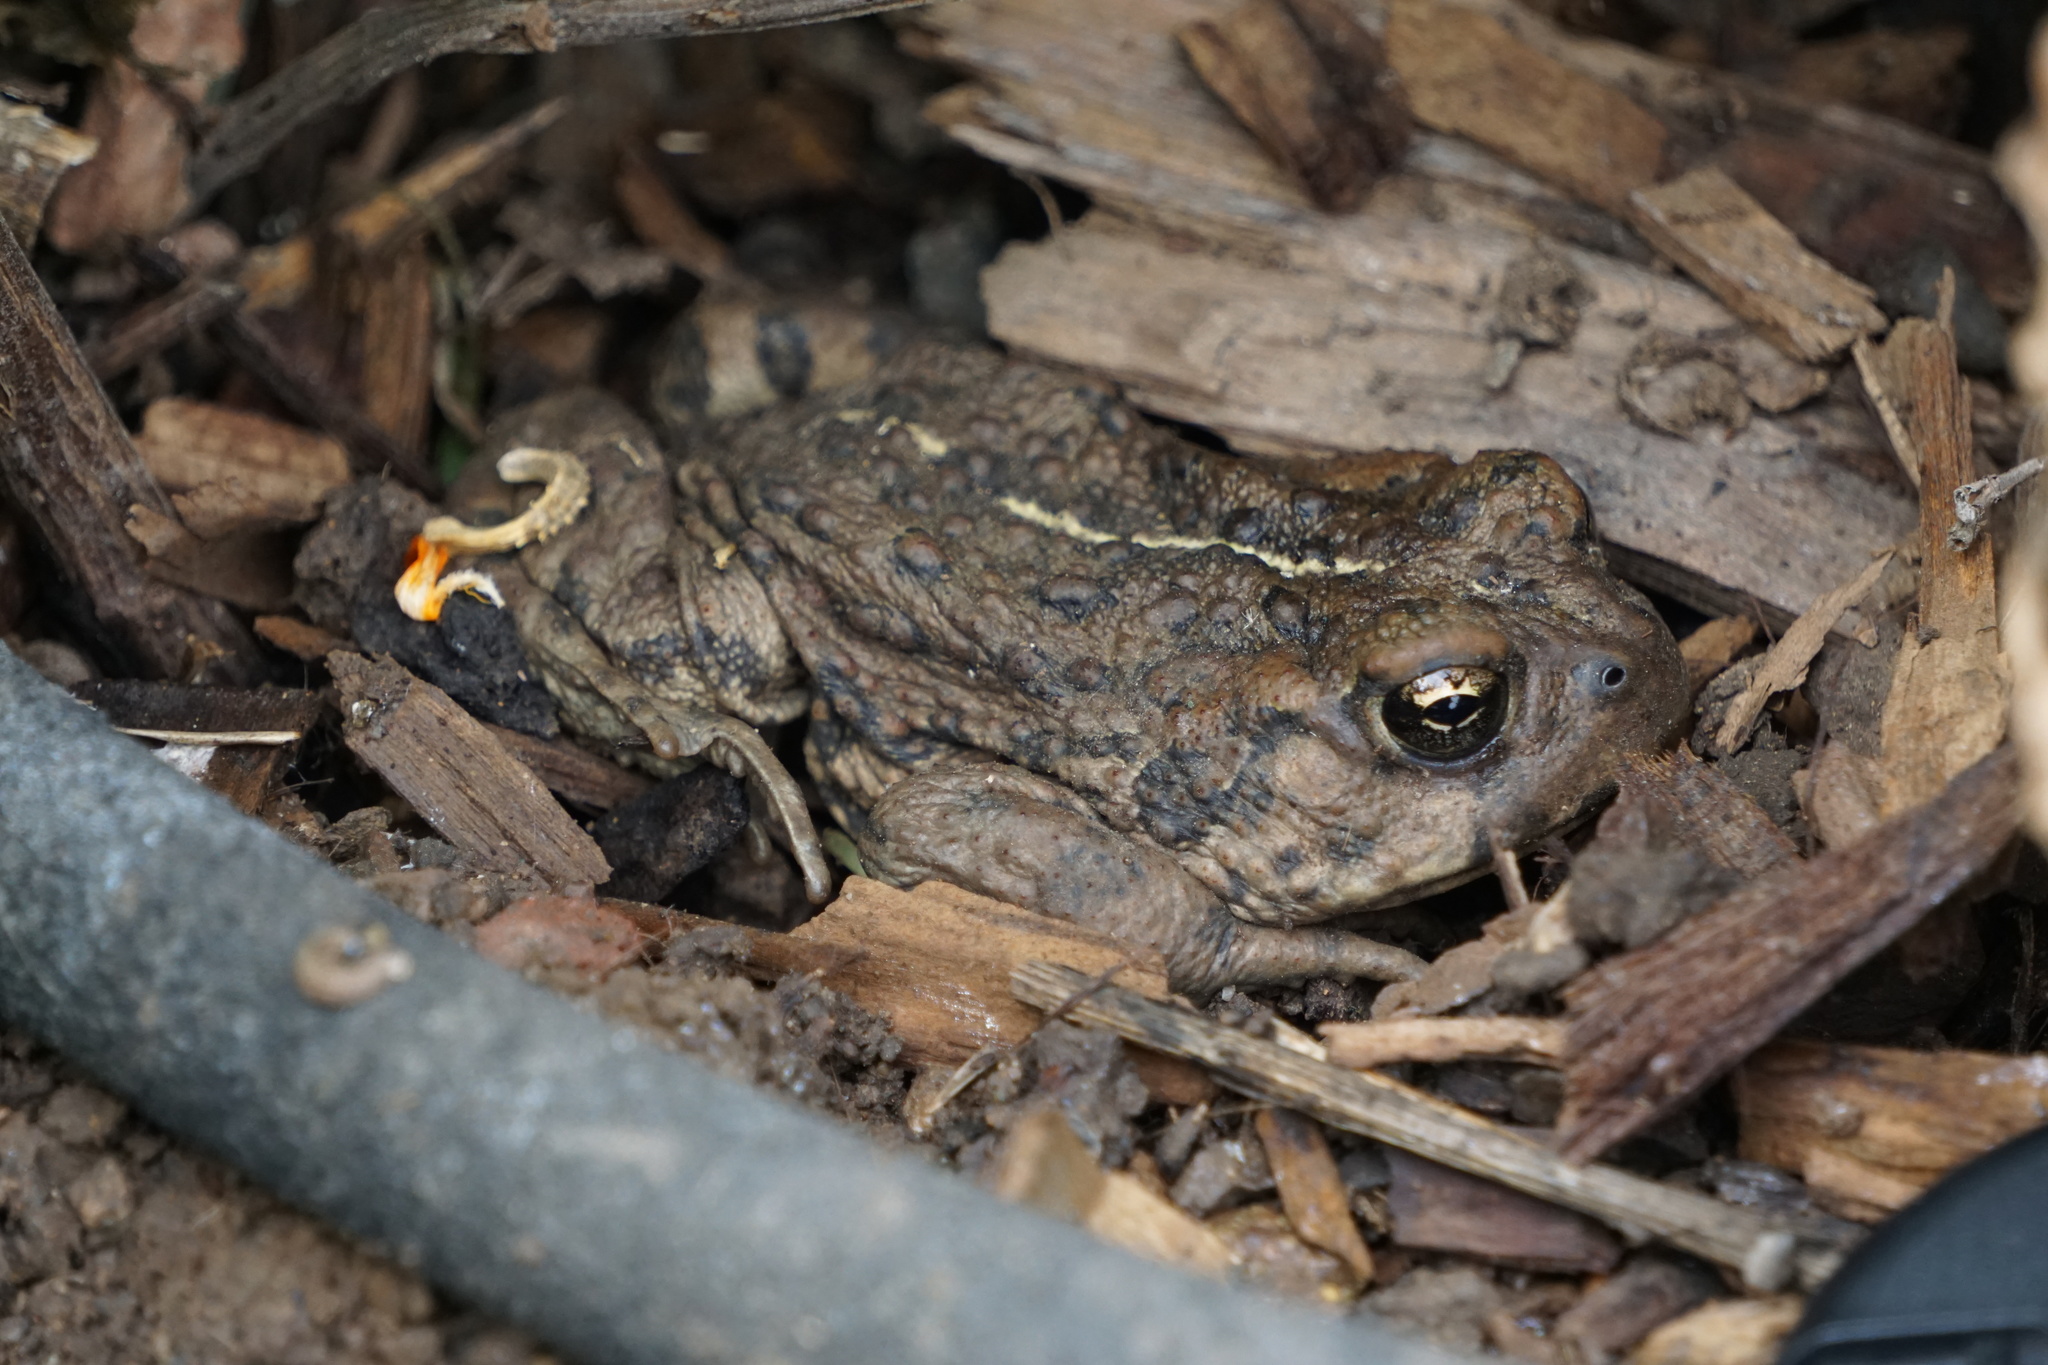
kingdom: Animalia
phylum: Chordata
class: Amphibia
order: Anura
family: Bufonidae
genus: Anaxyrus
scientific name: Anaxyrus boreas
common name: Western toad
